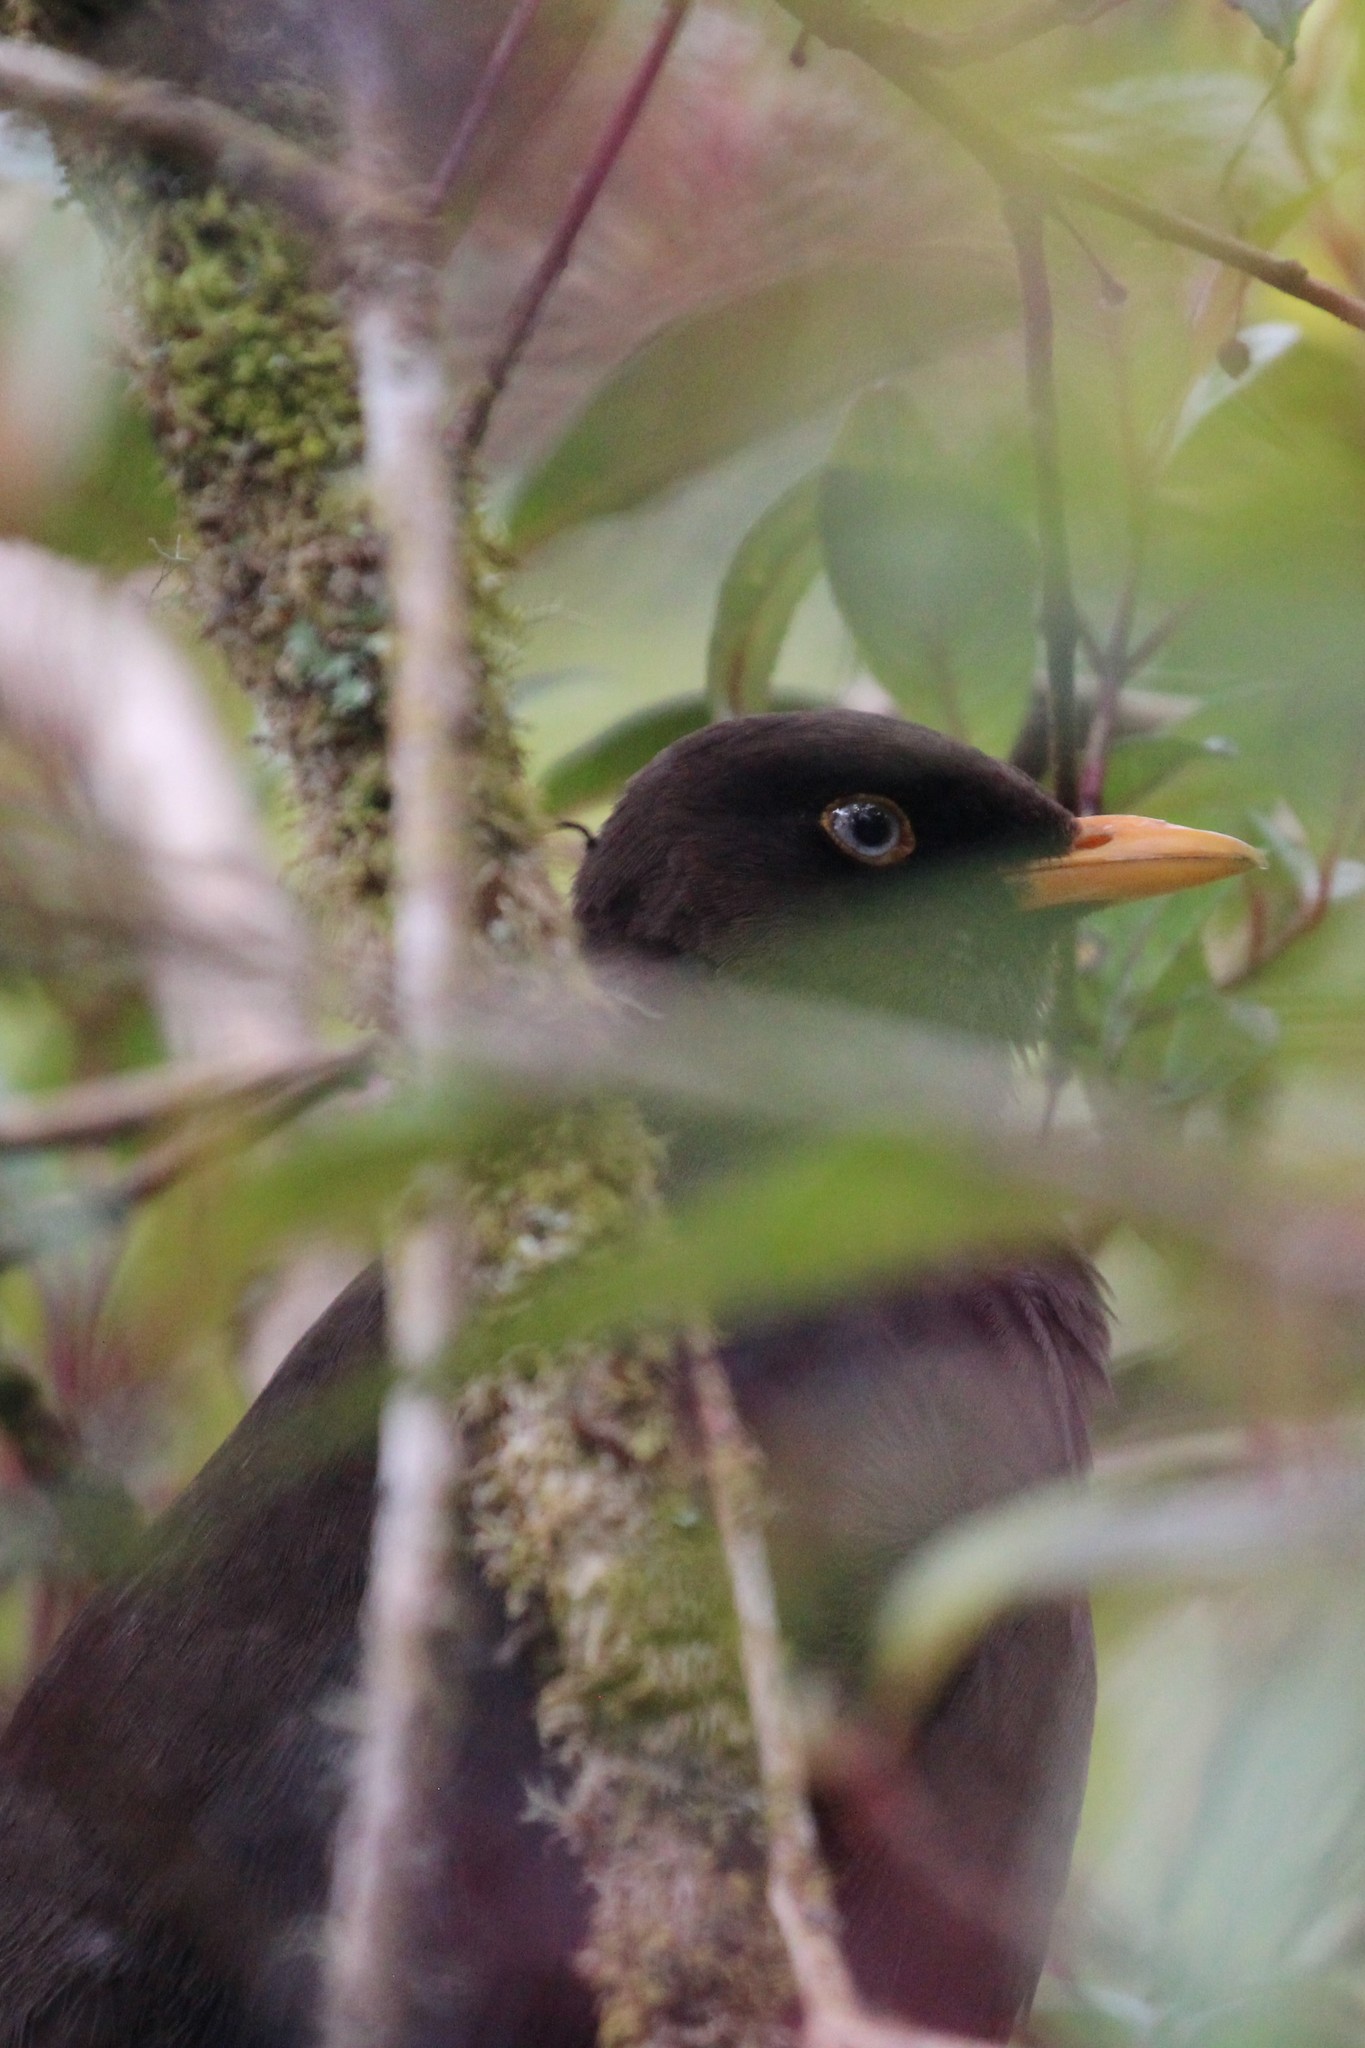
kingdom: Animalia
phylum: Chordata
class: Aves
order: Passeriformes
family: Turdidae
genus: Turdus
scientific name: Turdus nigrescens
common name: Sooty thrush
